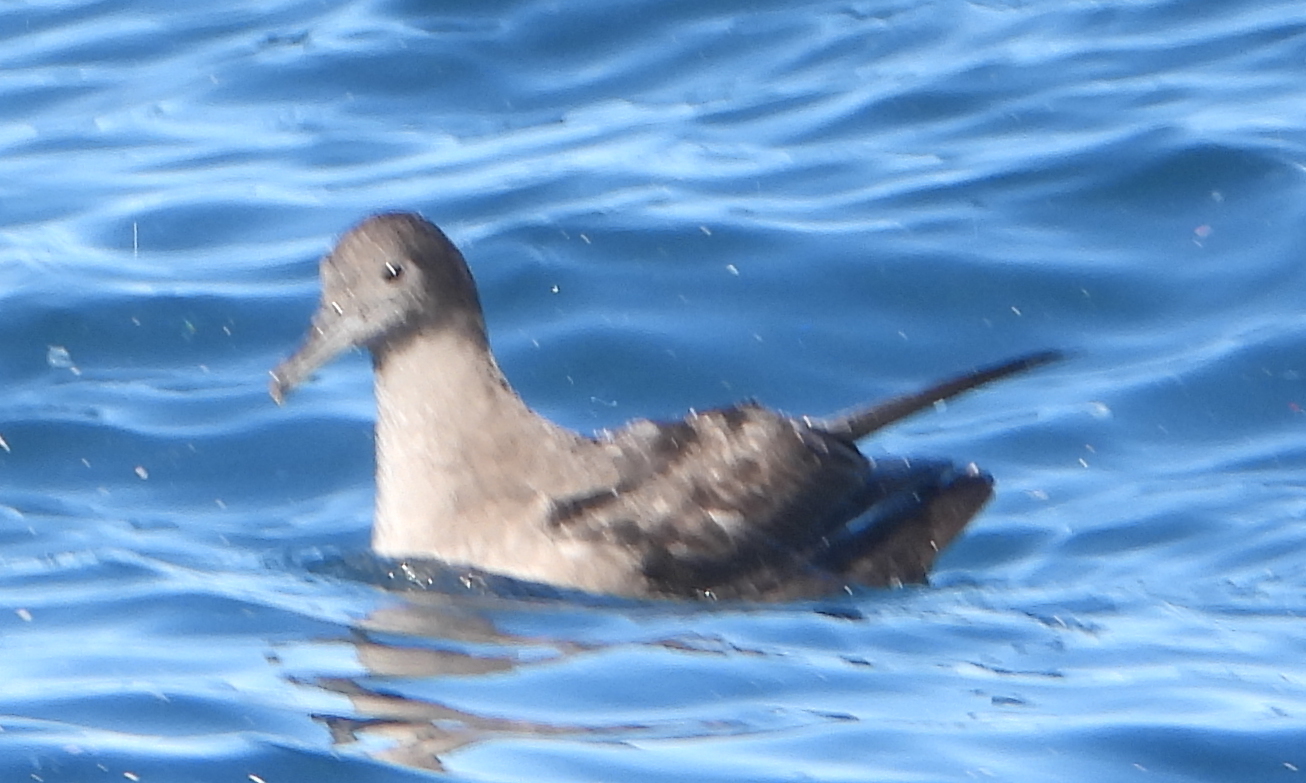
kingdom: Animalia
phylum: Chordata
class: Aves
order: Procellariiformes
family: Procellariidae
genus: Puffinus
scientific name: Puffinus griseus
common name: Sooty shearwater
